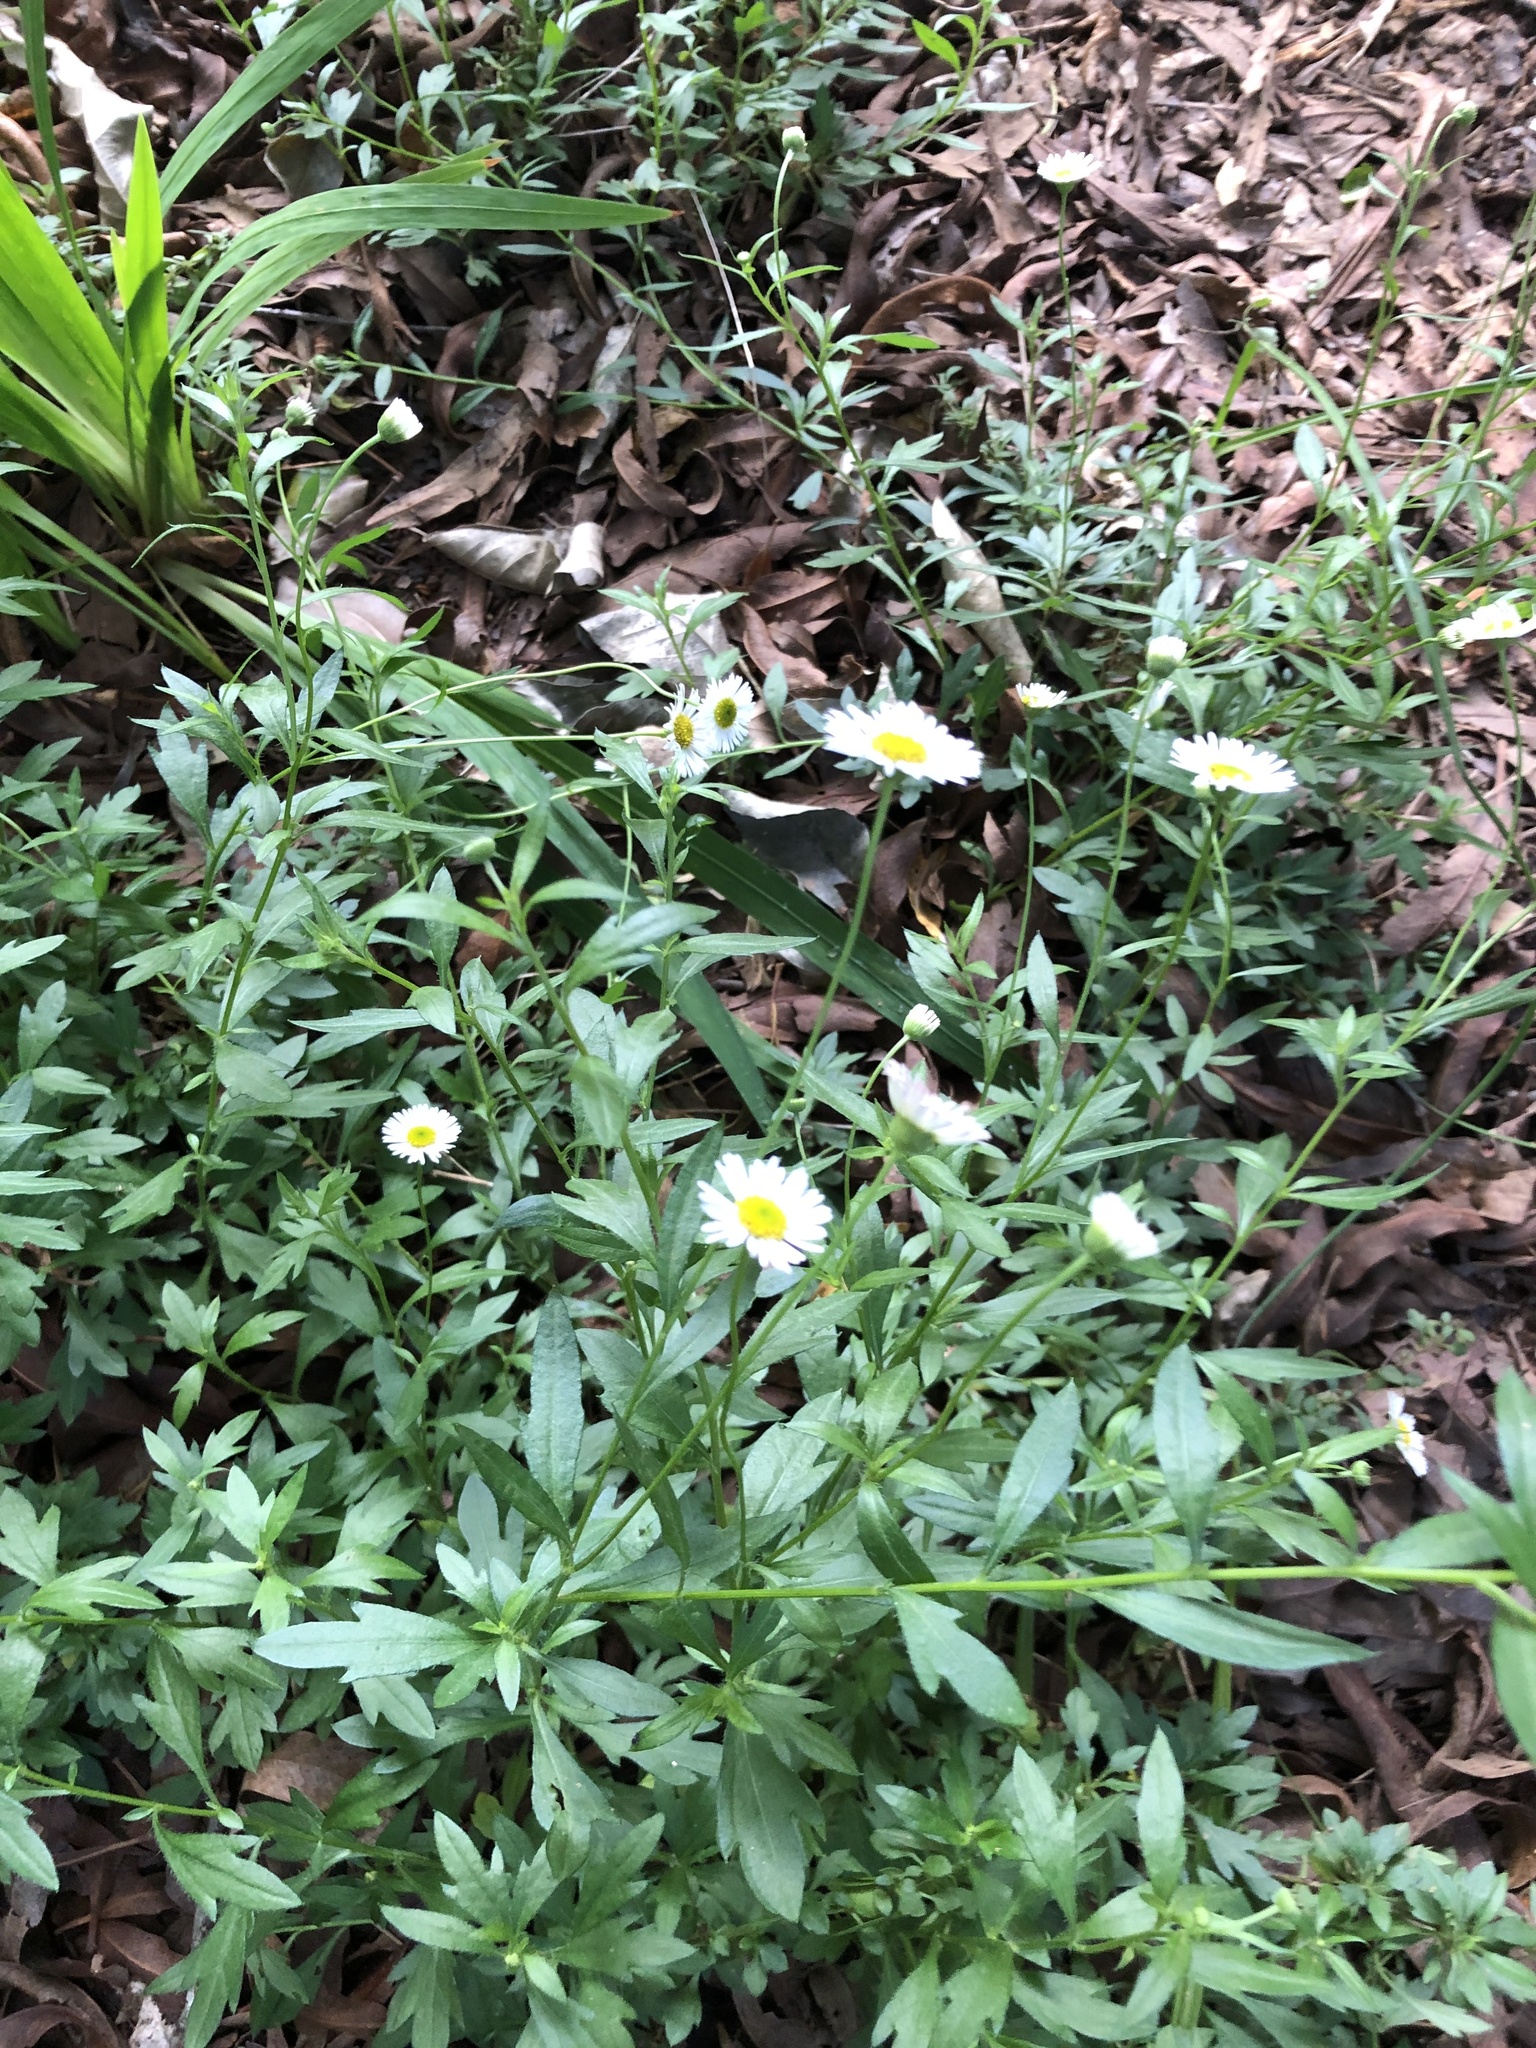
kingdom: Plantae
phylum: Tracheophyta
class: Magnoliopsida
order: Asterales
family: Asteraceae
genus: Erigeron
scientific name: Erigeron karvinskianus
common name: Mexican fleabane
